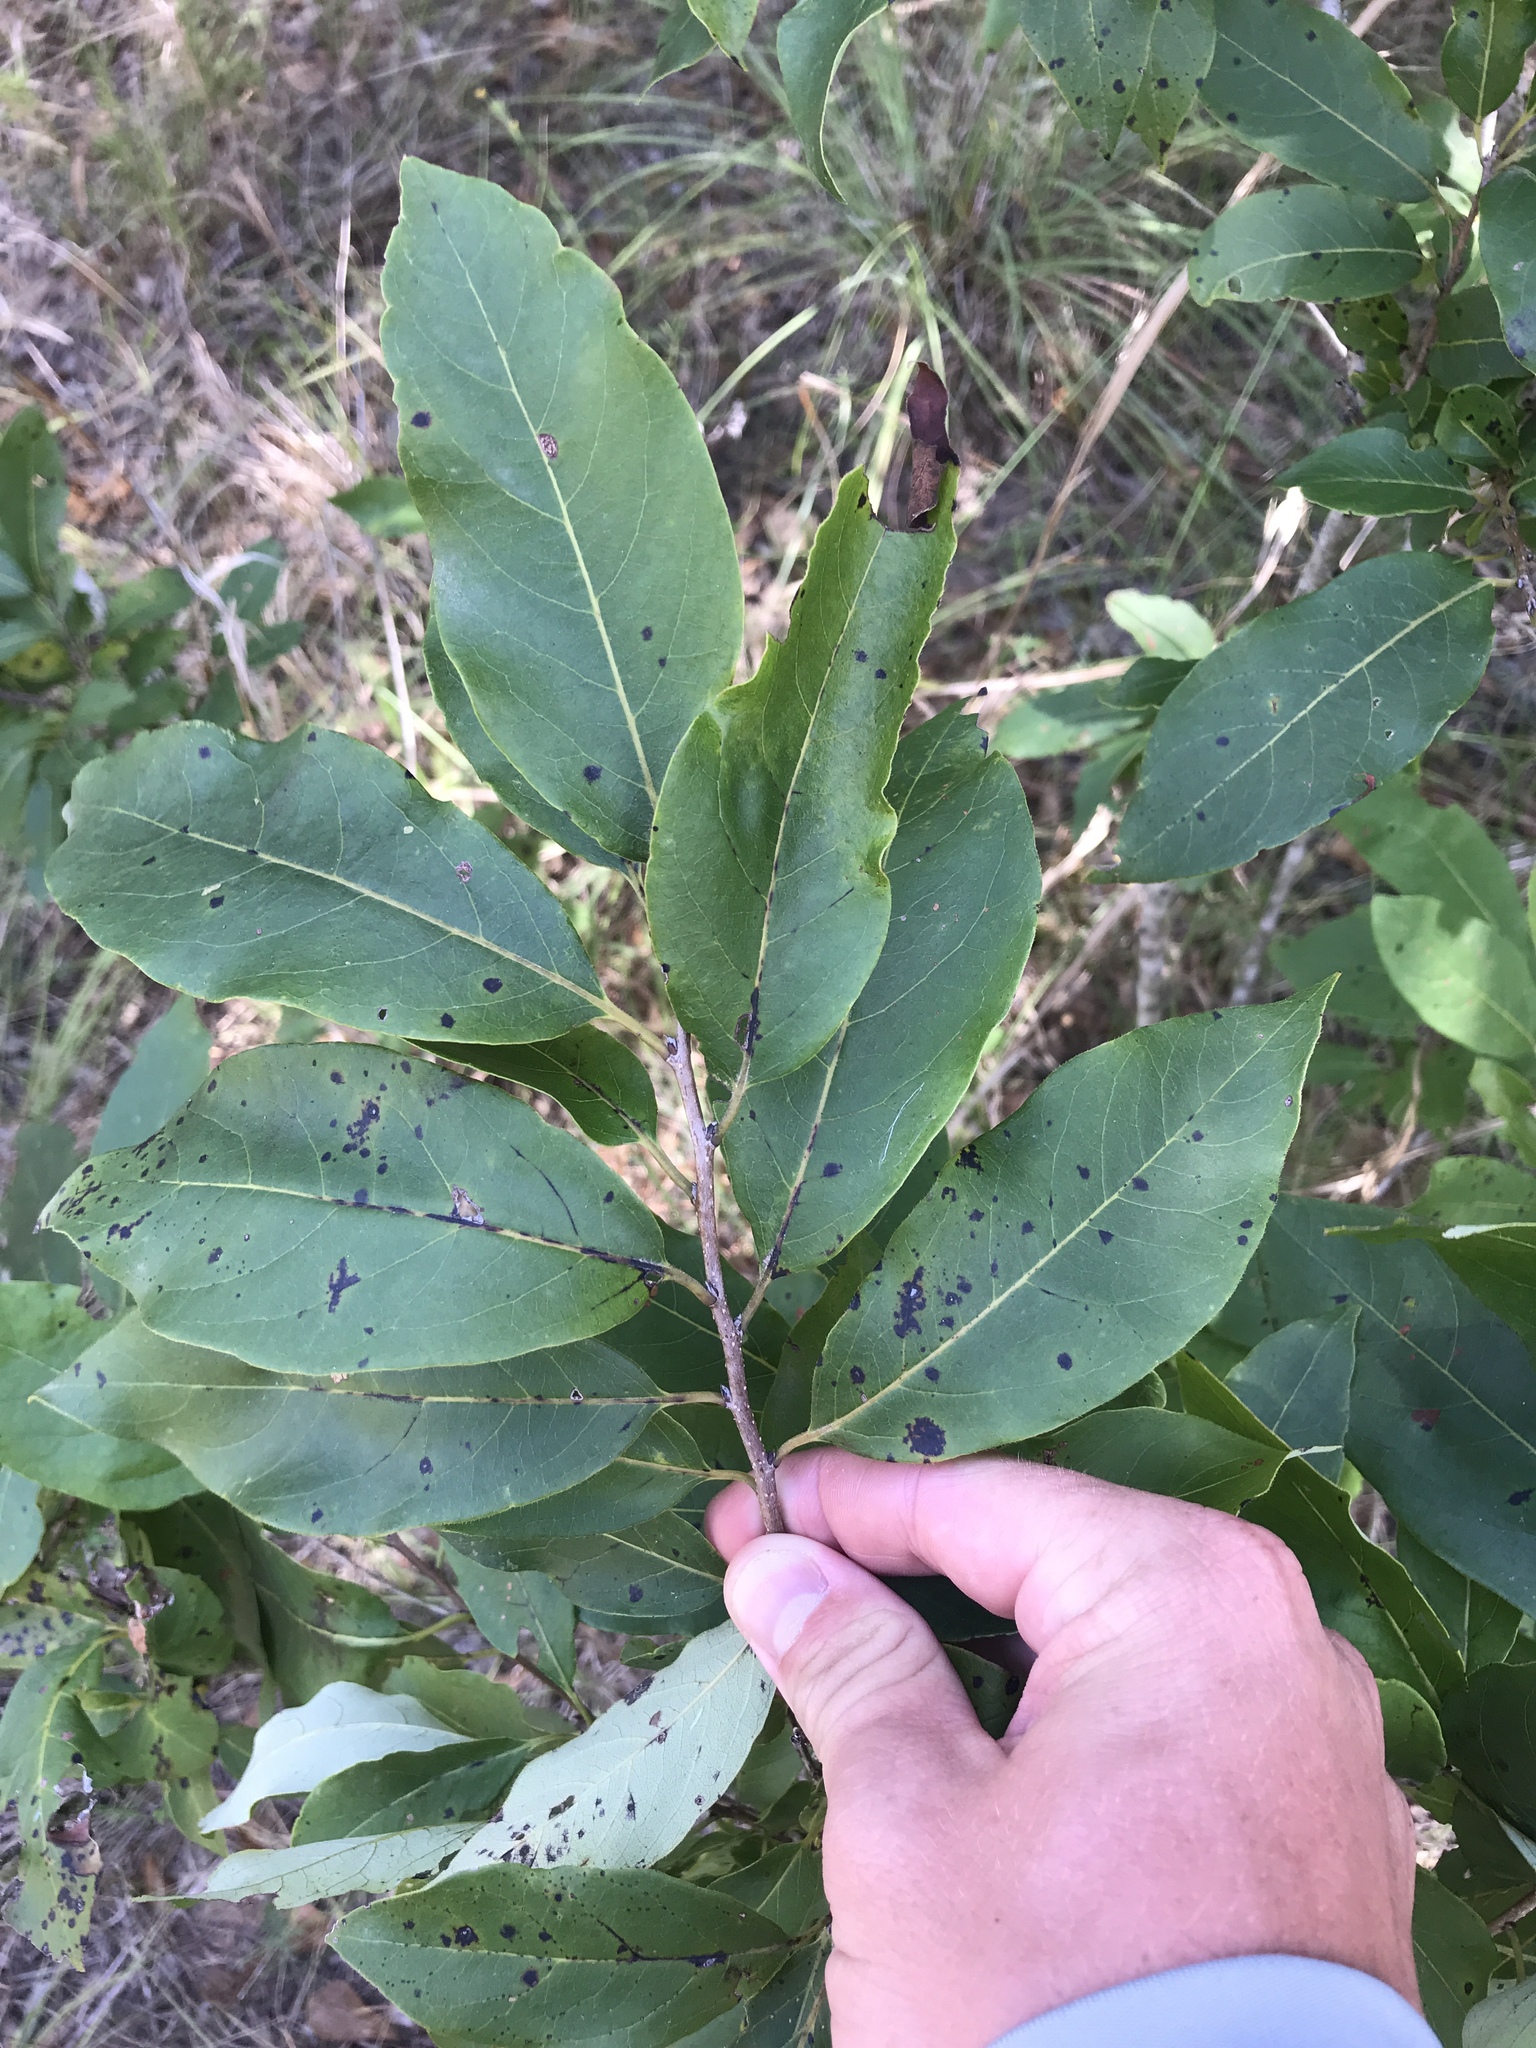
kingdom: Plantae
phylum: Tracheophyta
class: Magnoliopsida
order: Ericales
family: Ebenaceae
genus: Diospyros
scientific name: Diospyros virginiana
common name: Persimmon
